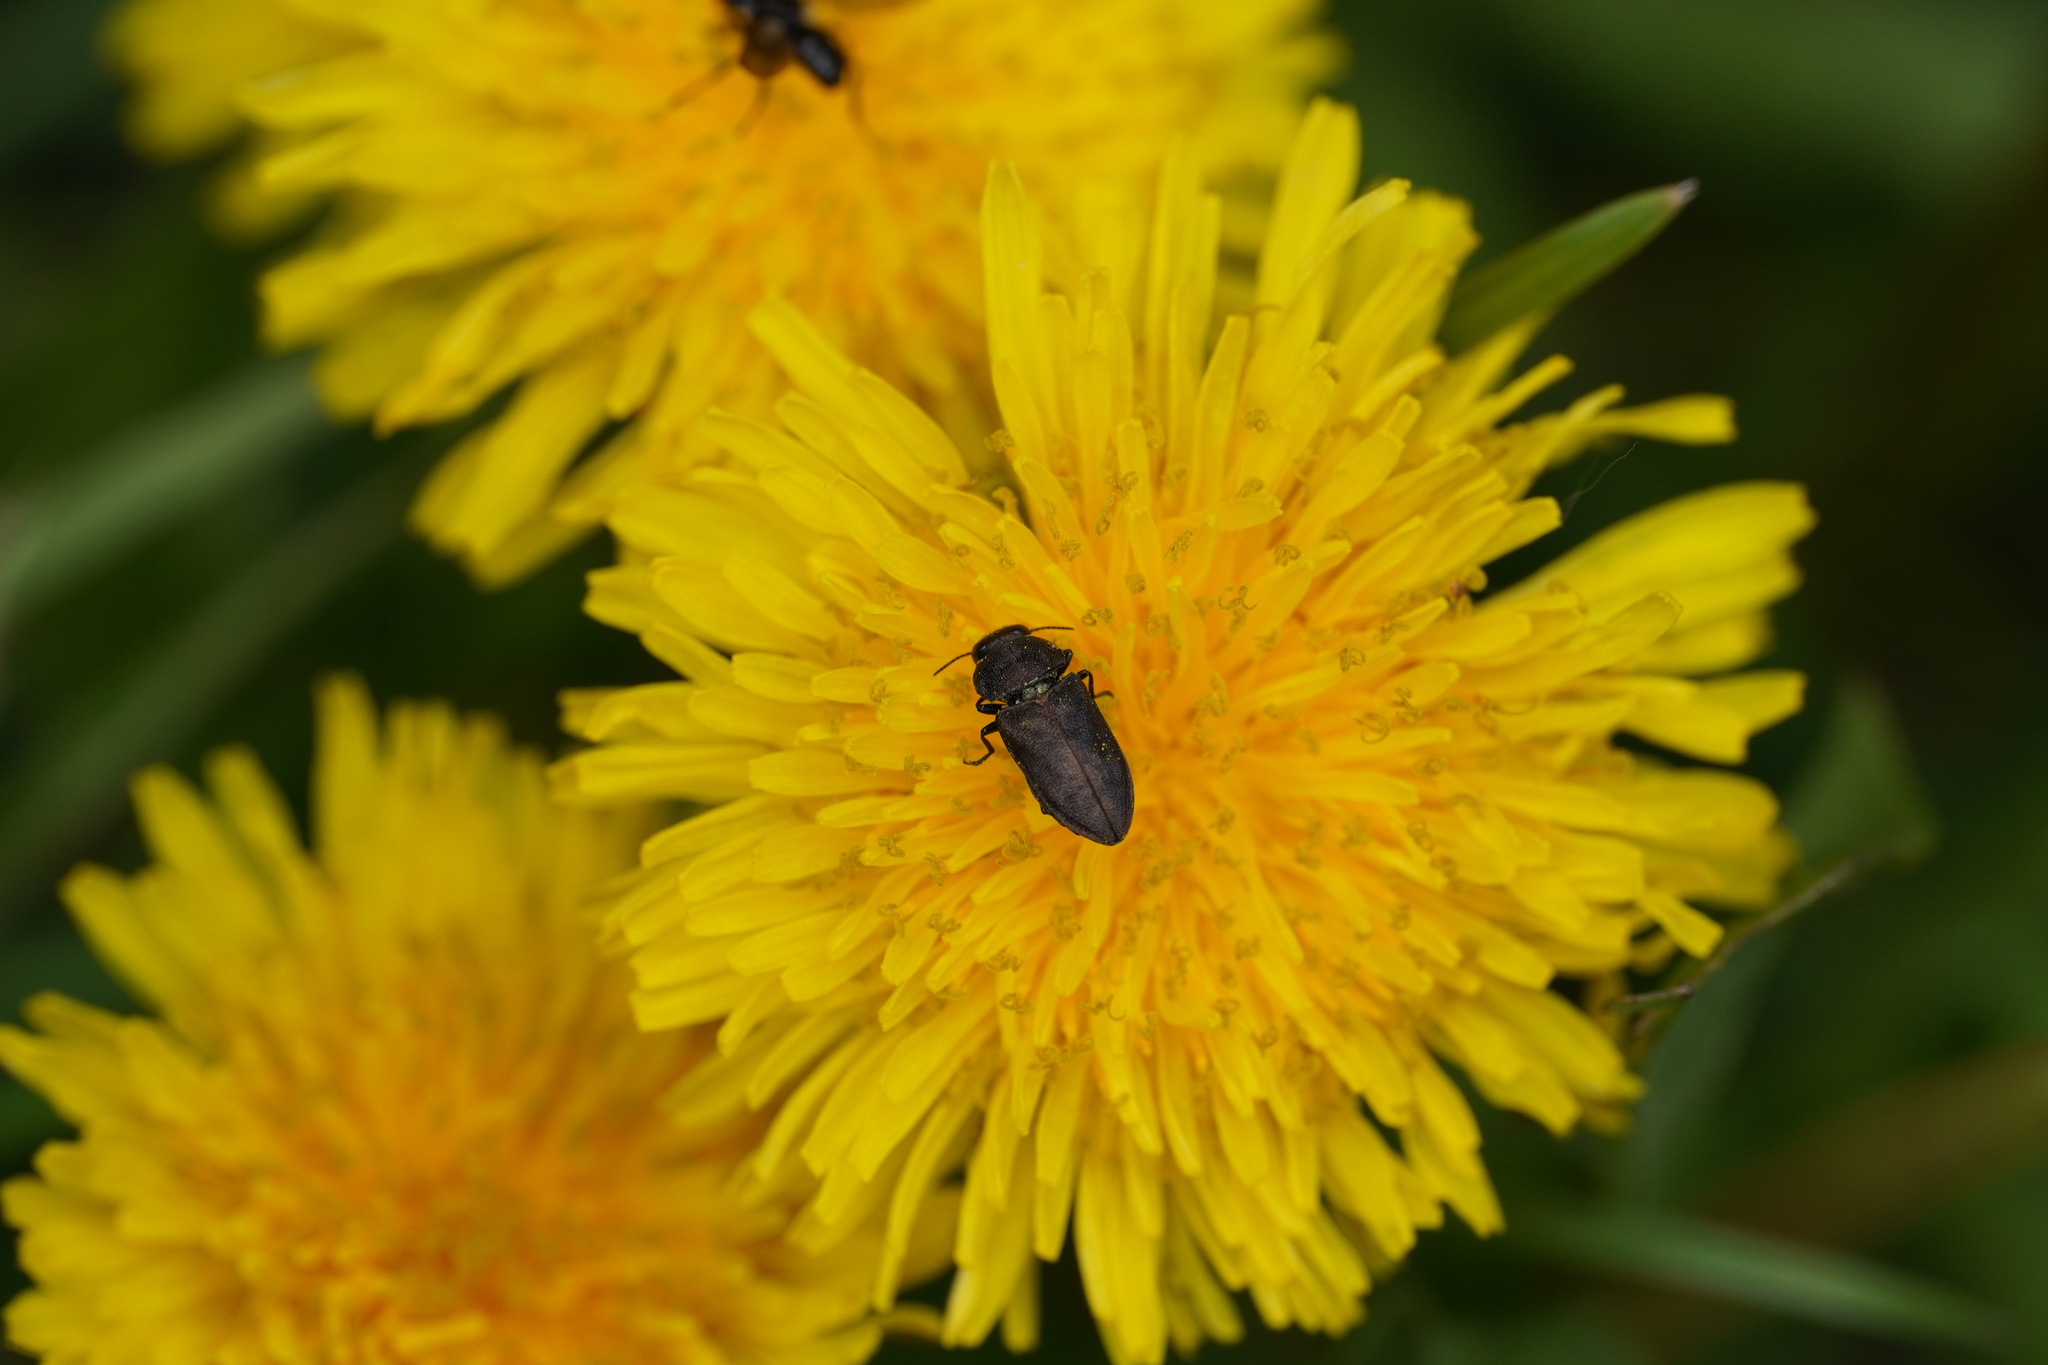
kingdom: Animalia
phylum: Arthropoda
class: Insecta
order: Coleoptera
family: Buprestidae
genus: Anthaxia
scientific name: Anthaxia helvetica
